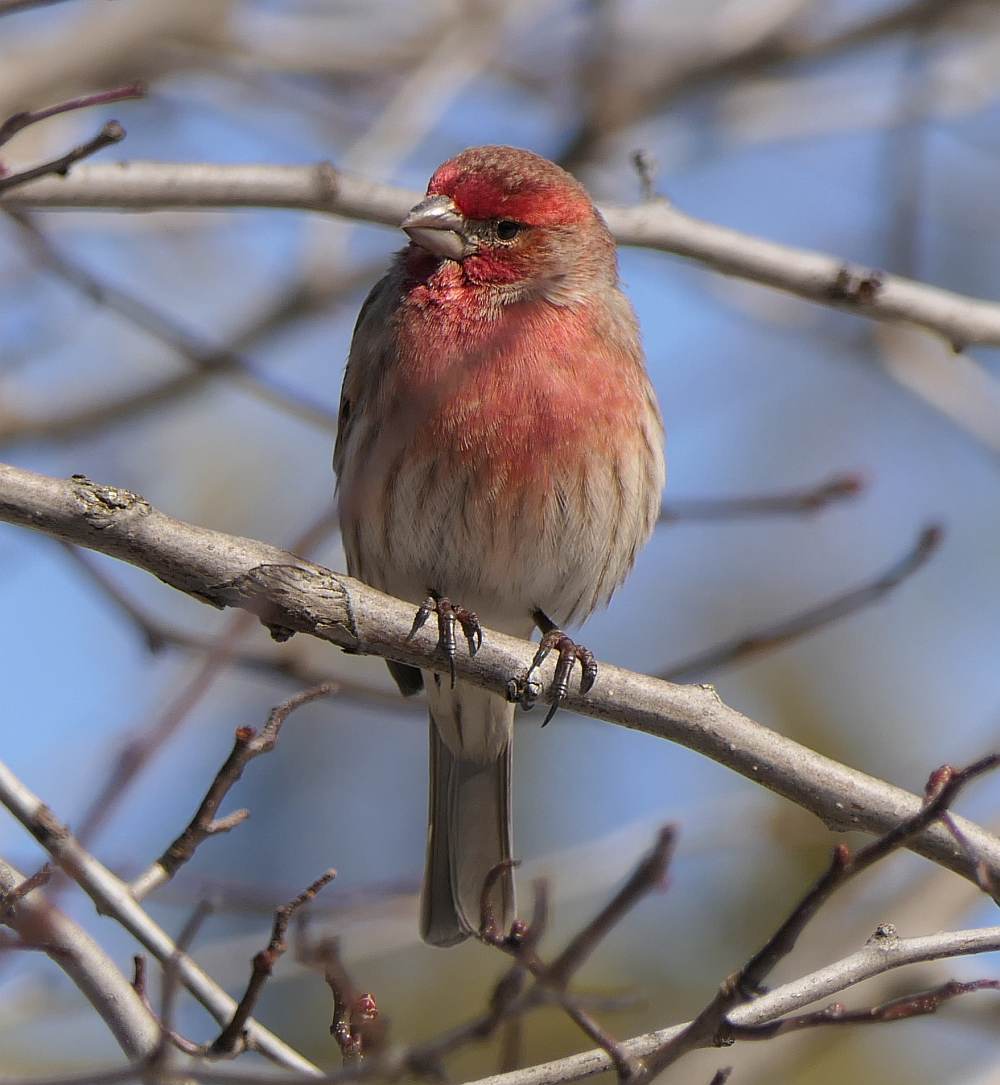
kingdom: Animalia
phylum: Chordata
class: Aves
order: Passeriformes
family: Fringillidae
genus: Haemorhous
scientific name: Haemorhous mexicanus
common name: House finch
